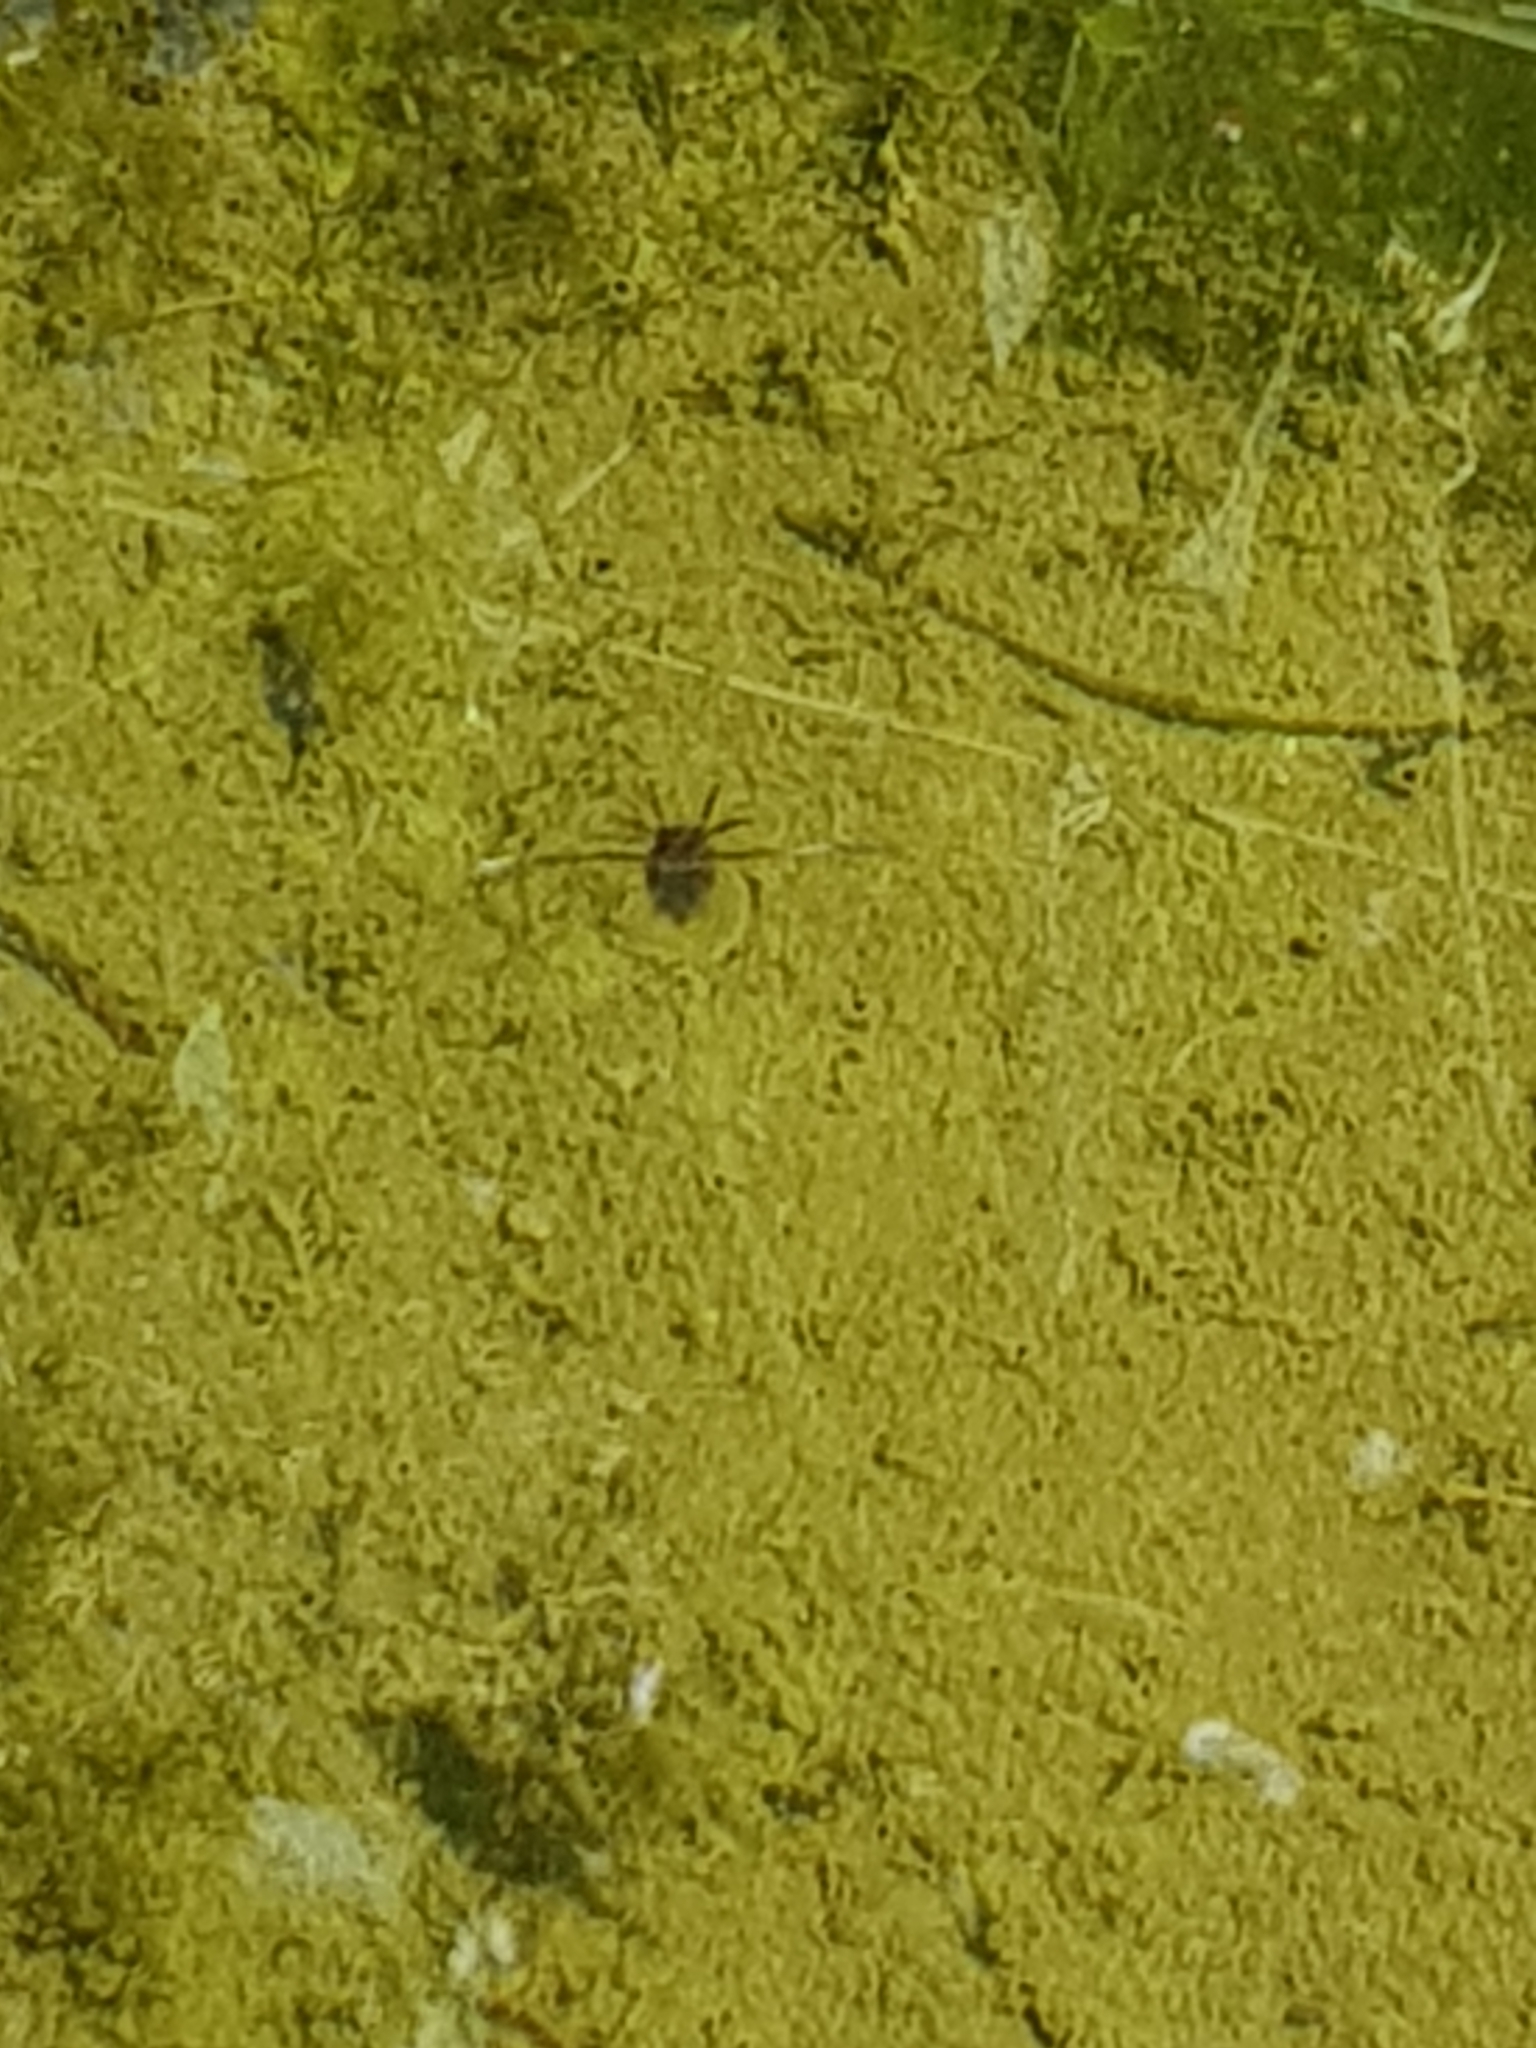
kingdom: Animalia
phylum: Arthropoda
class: Insecta
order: Hemiptera
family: Notonectidae
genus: Notonecta
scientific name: Notonecta
